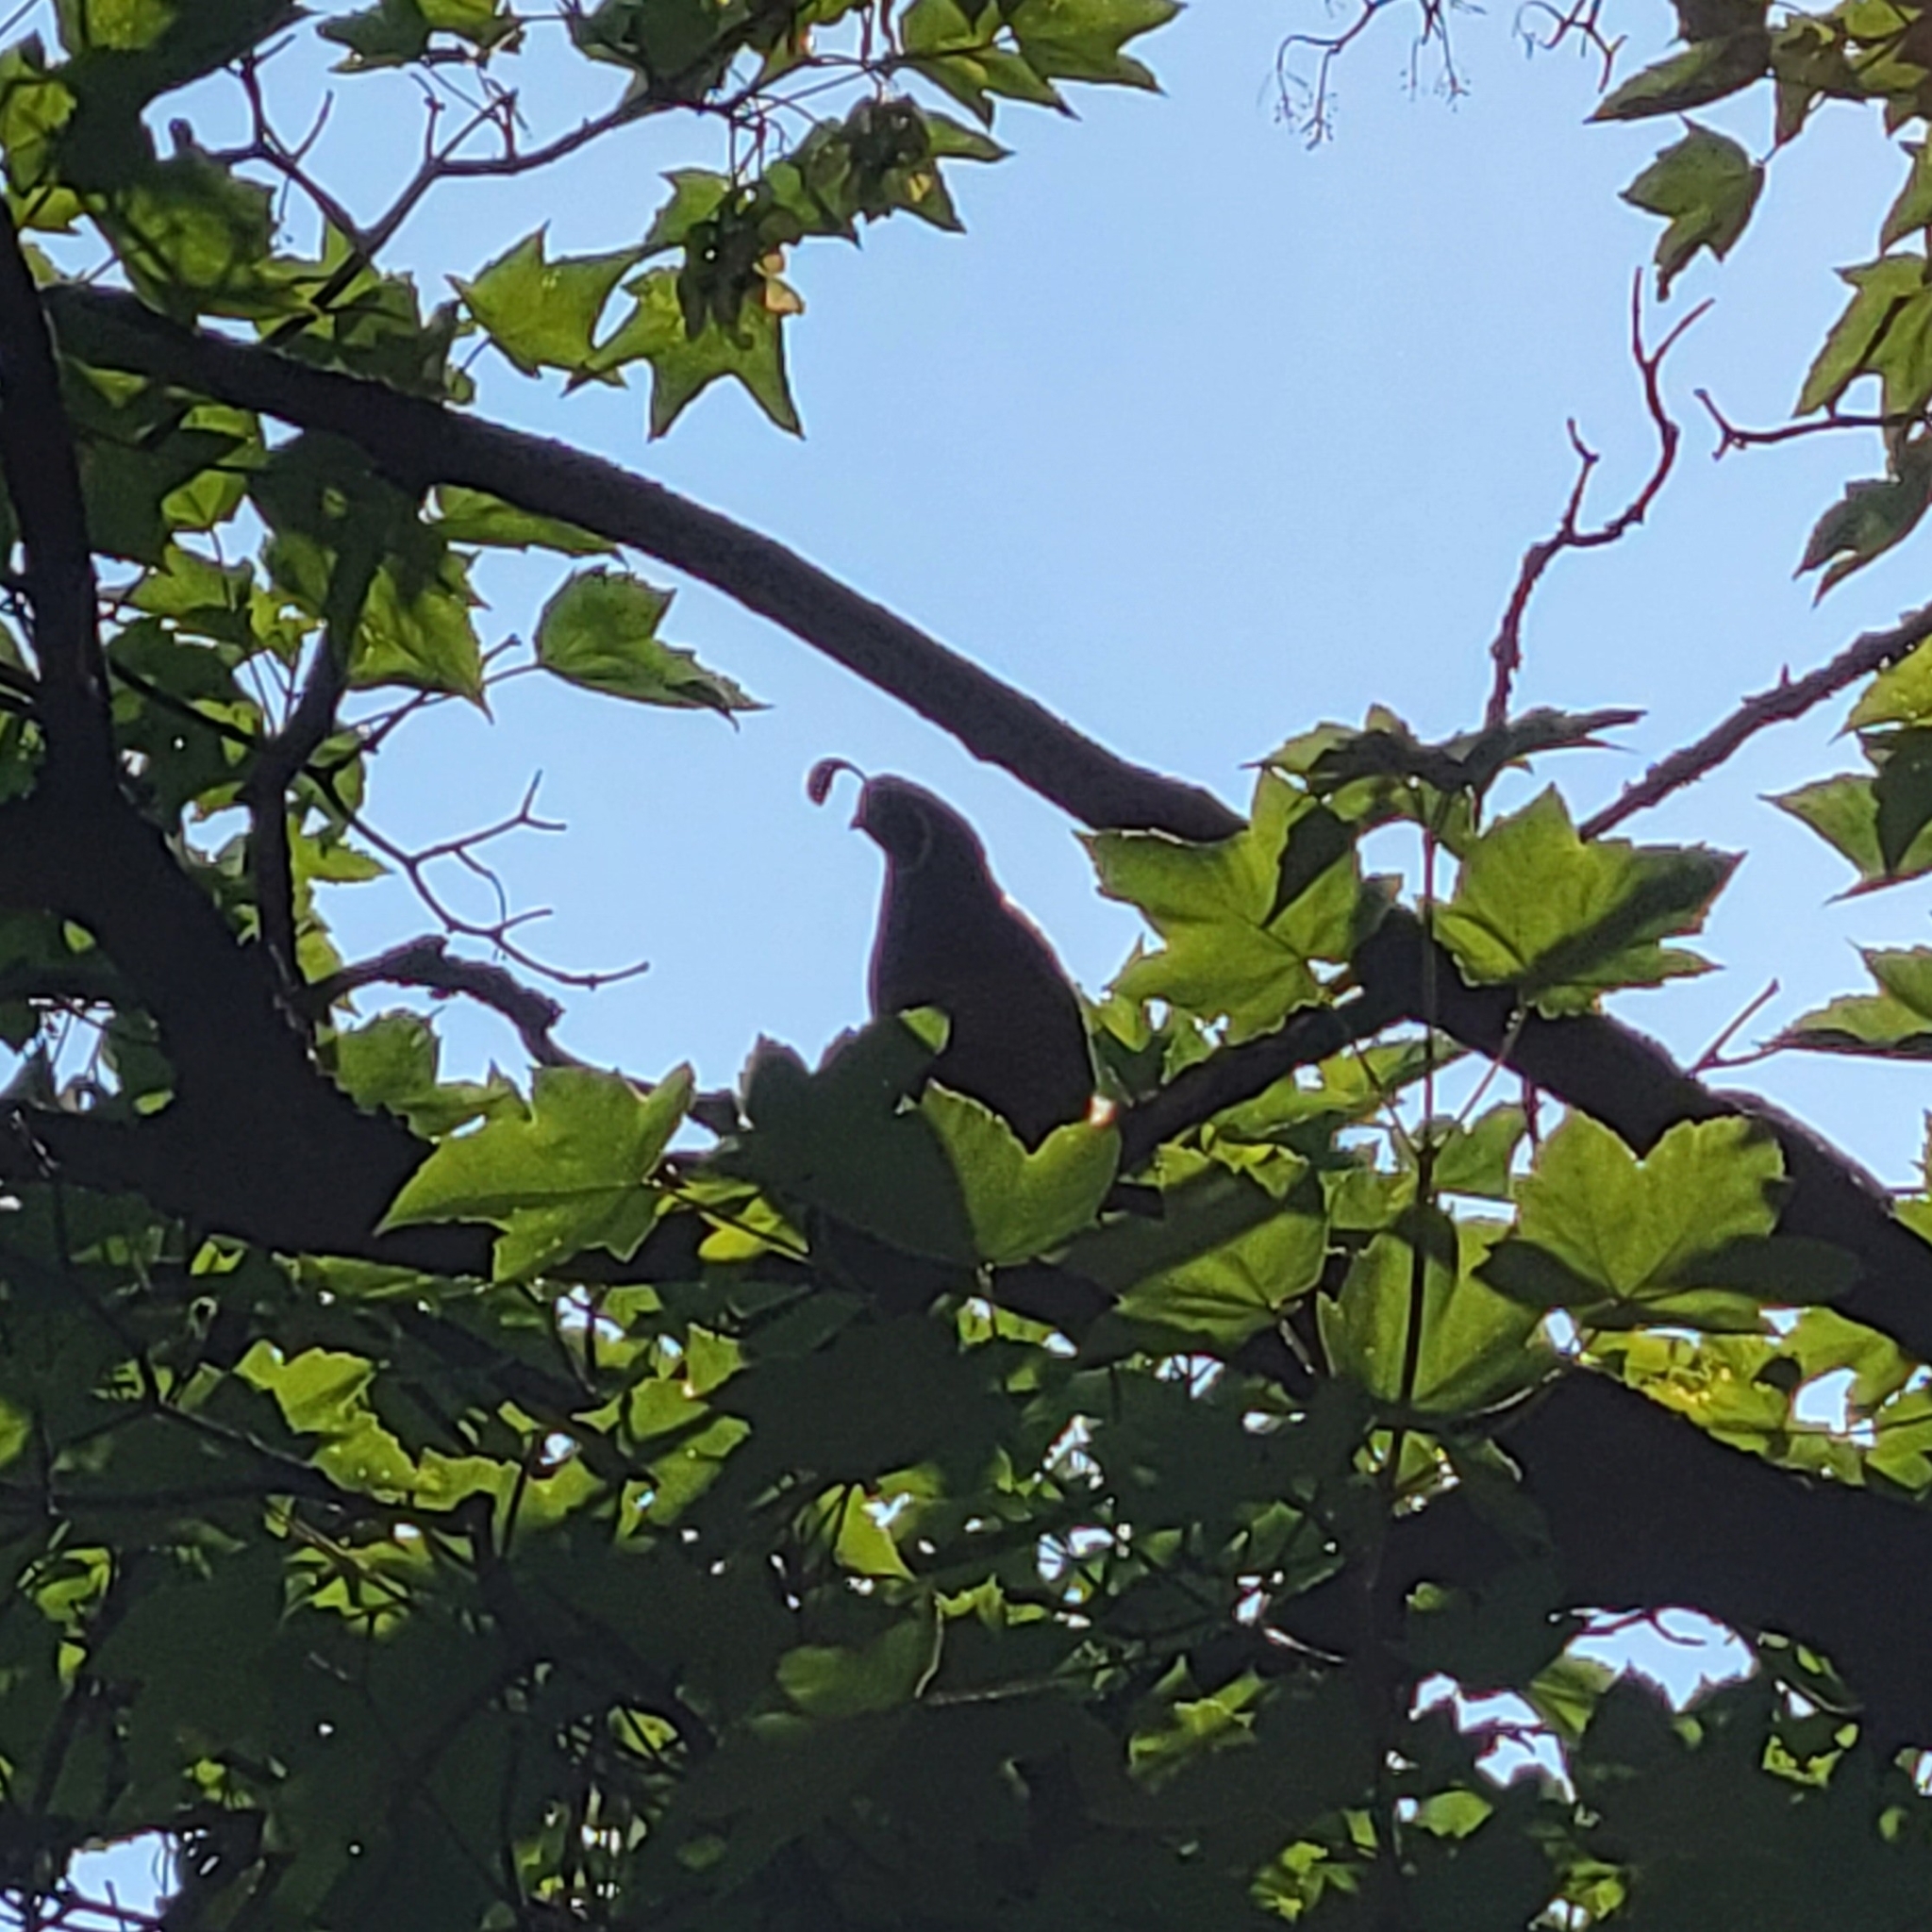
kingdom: Animalia
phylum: Chordata
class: Aves
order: Galliformes
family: Odontophoridae
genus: Callipepla
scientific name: Callipepla californica
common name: California quail
